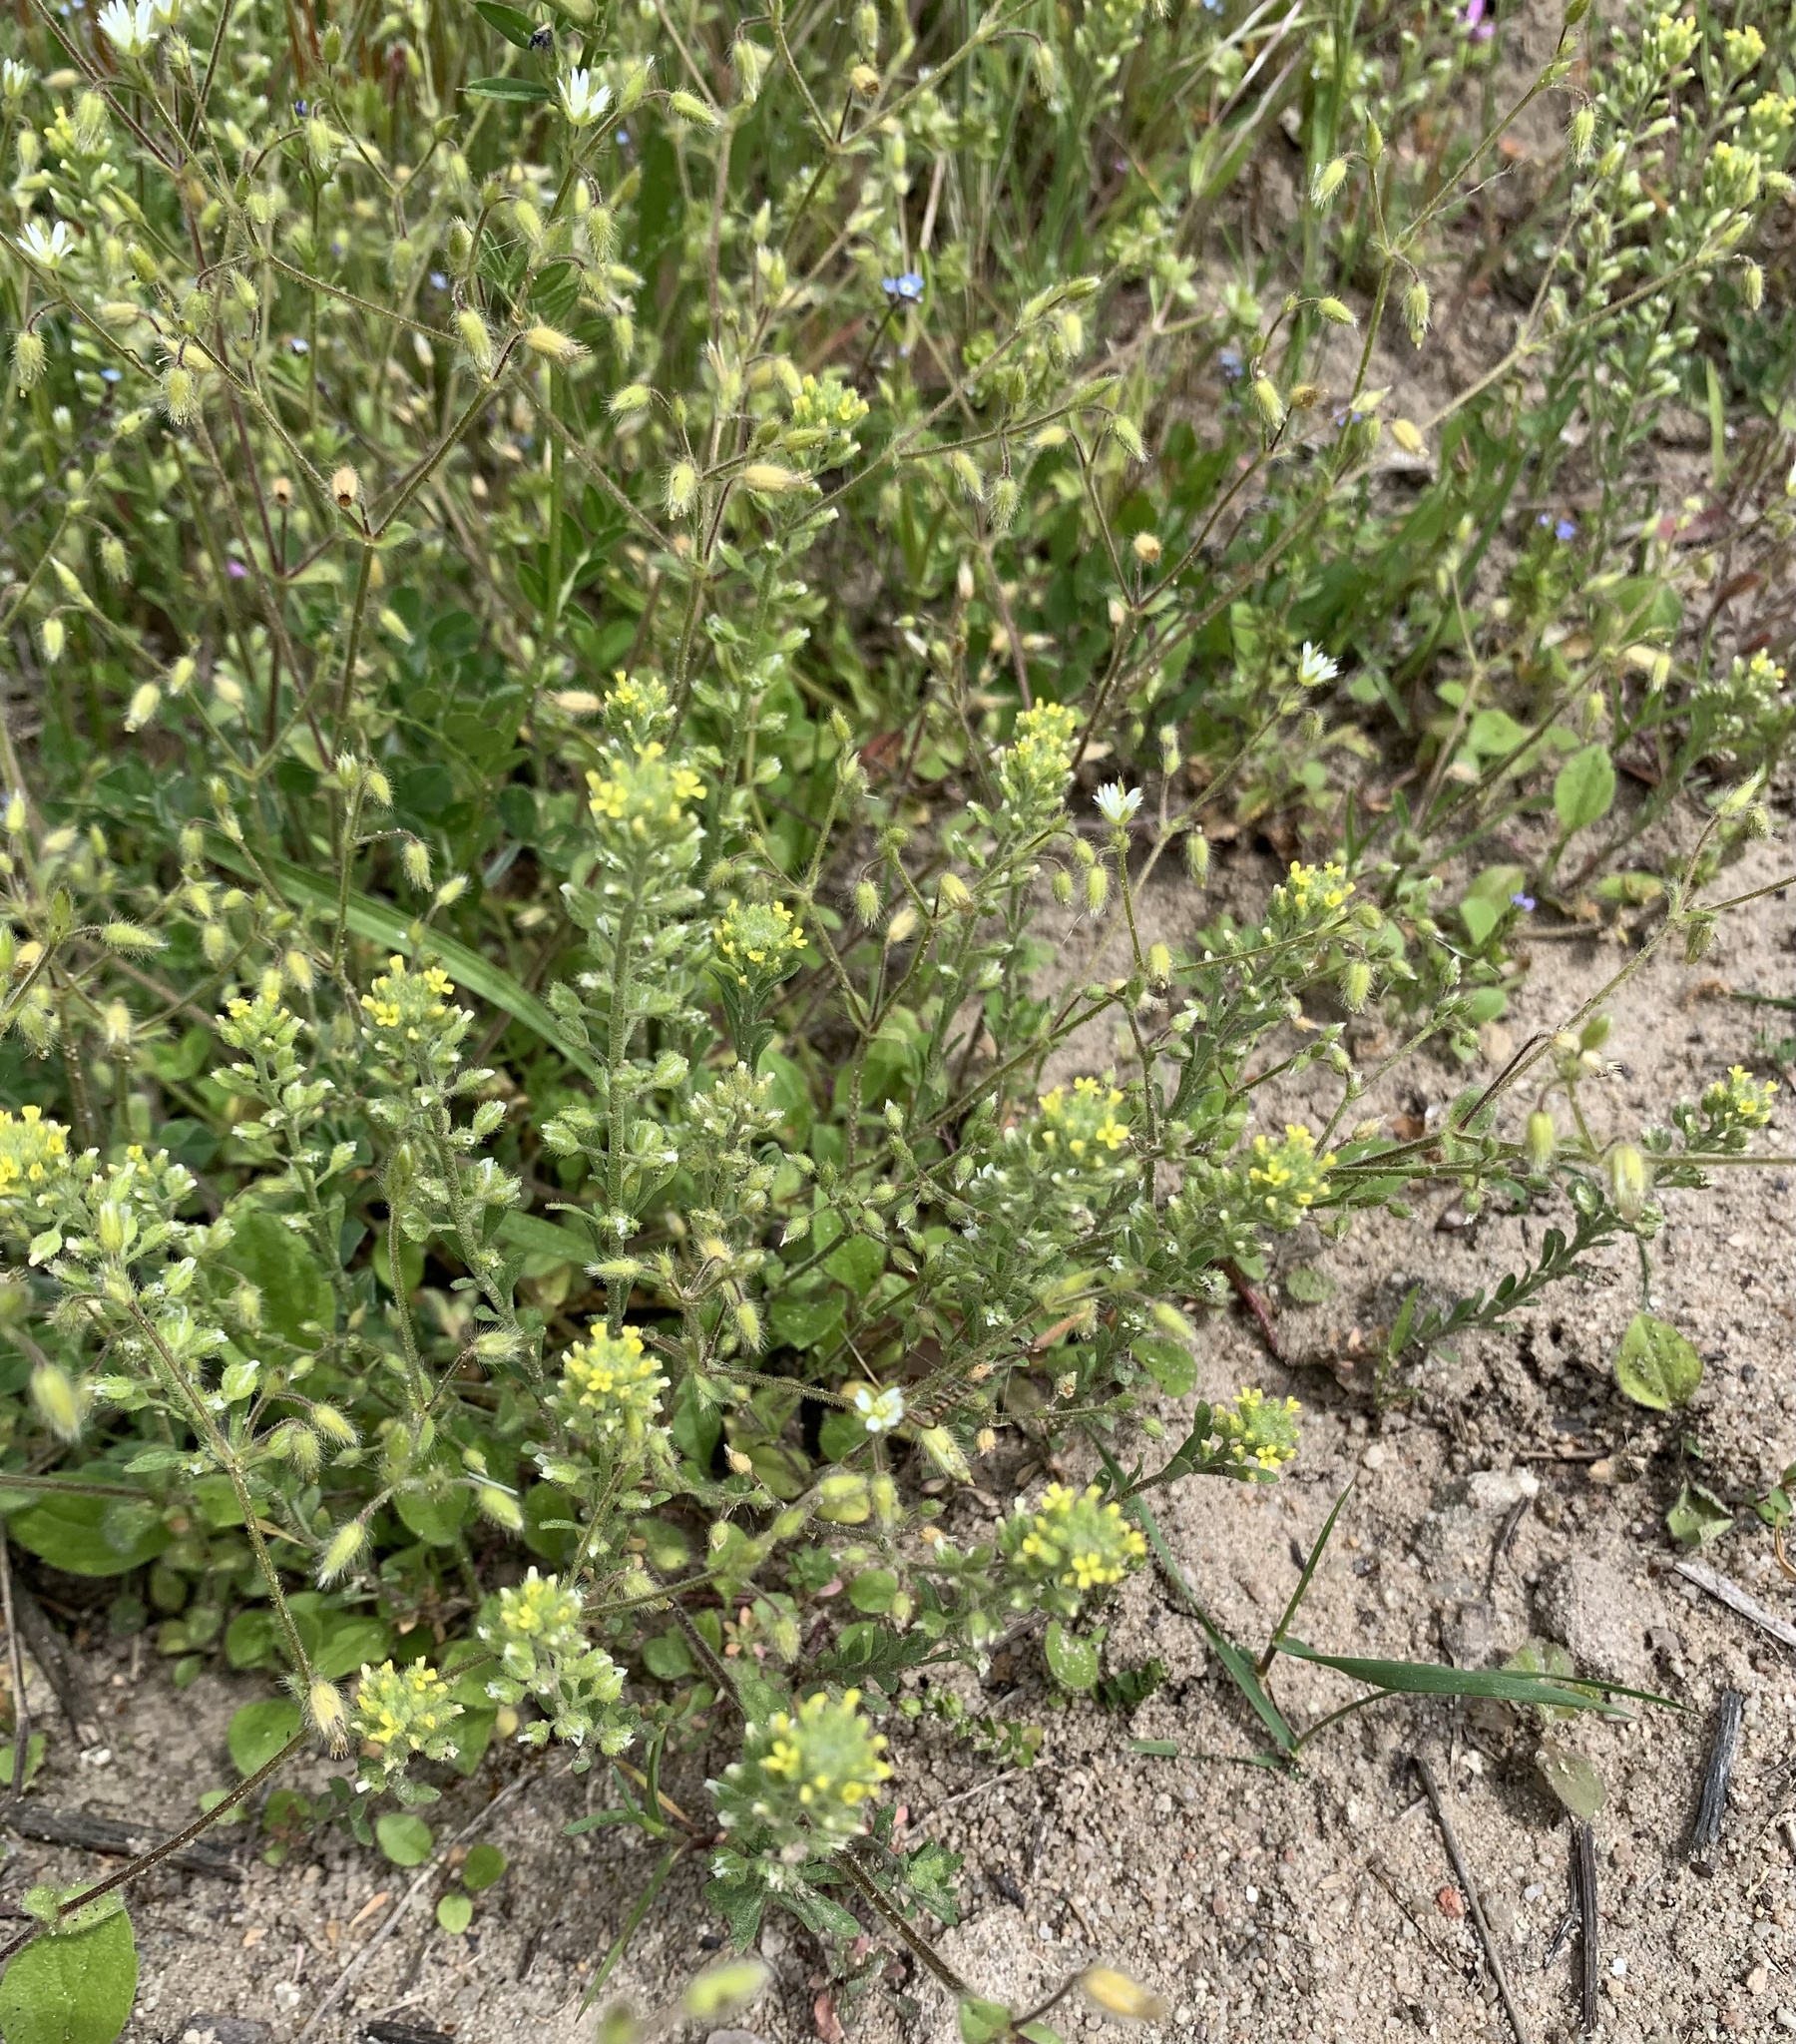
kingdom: Plantae
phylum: Tracheophyta
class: Magnoliopsida
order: Brassicales
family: Brassicaceae
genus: Alyssum
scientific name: Alyssum alyssoides
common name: Small alison
